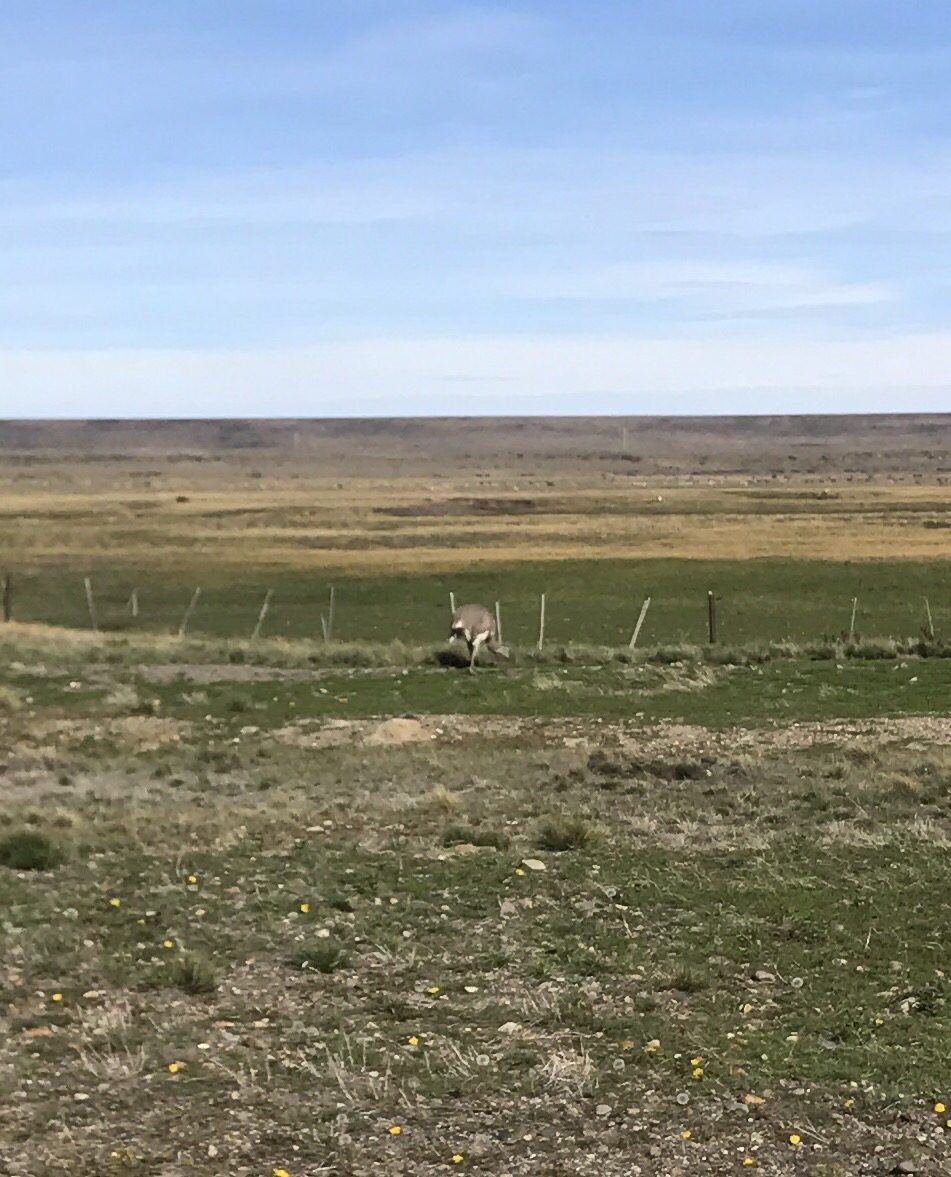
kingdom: Animalia
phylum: Chordata
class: Aves
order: Rheiformes
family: Rheidae
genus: Rhea
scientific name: Rhea pennata
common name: Lesser rhea
